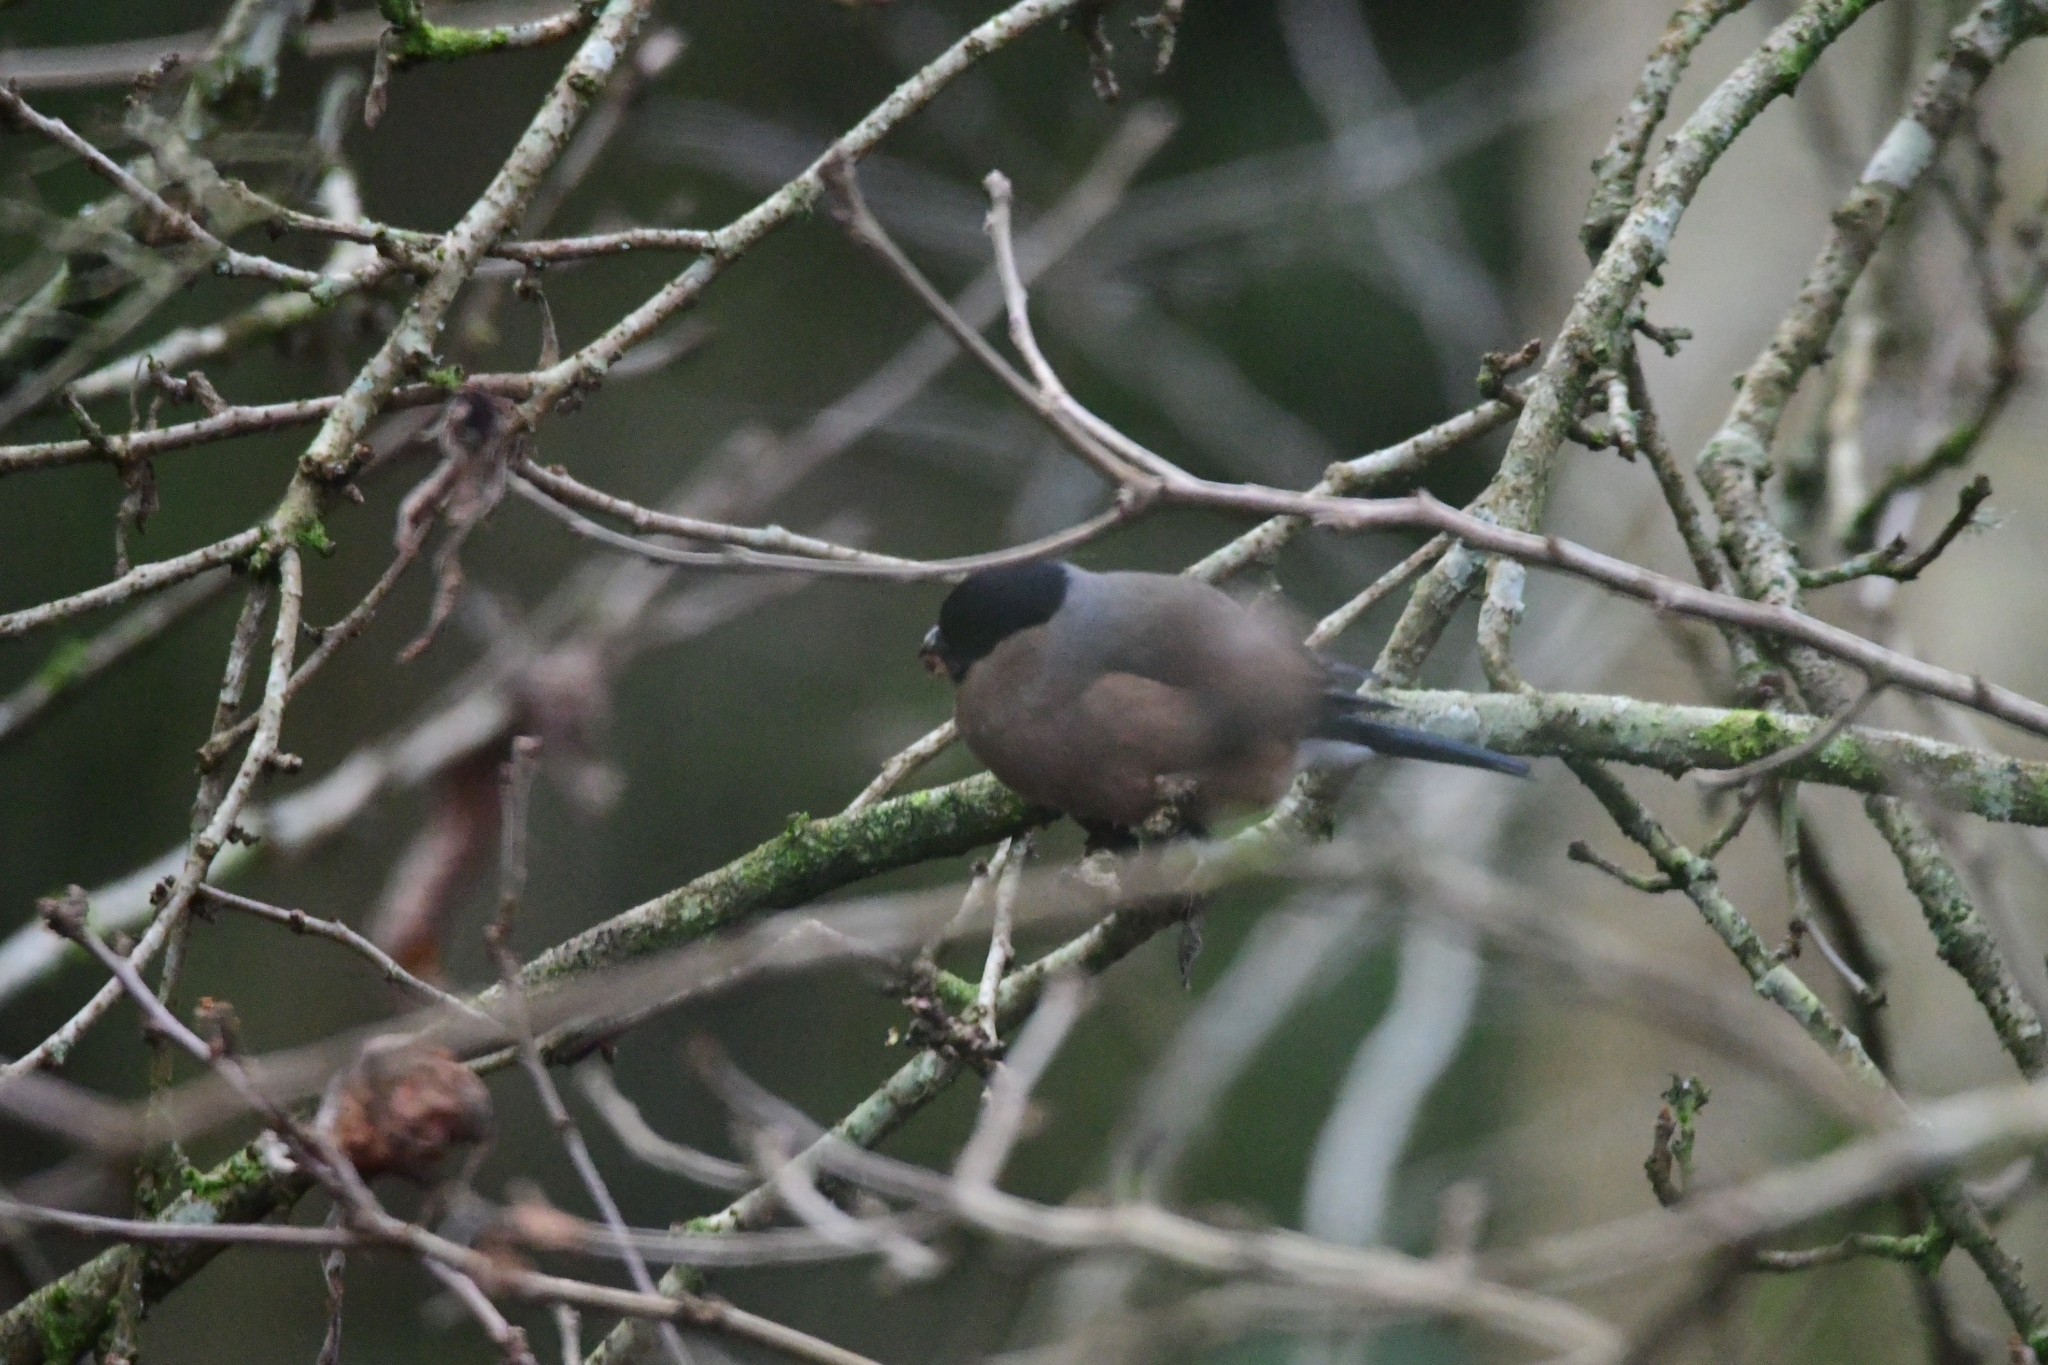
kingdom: Animalia
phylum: Chordata
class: Aves
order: Passeriformes
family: Fringillidae
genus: Pyrrhula
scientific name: Pyrrhula pyrrhula
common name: Eurasian bullfinch
